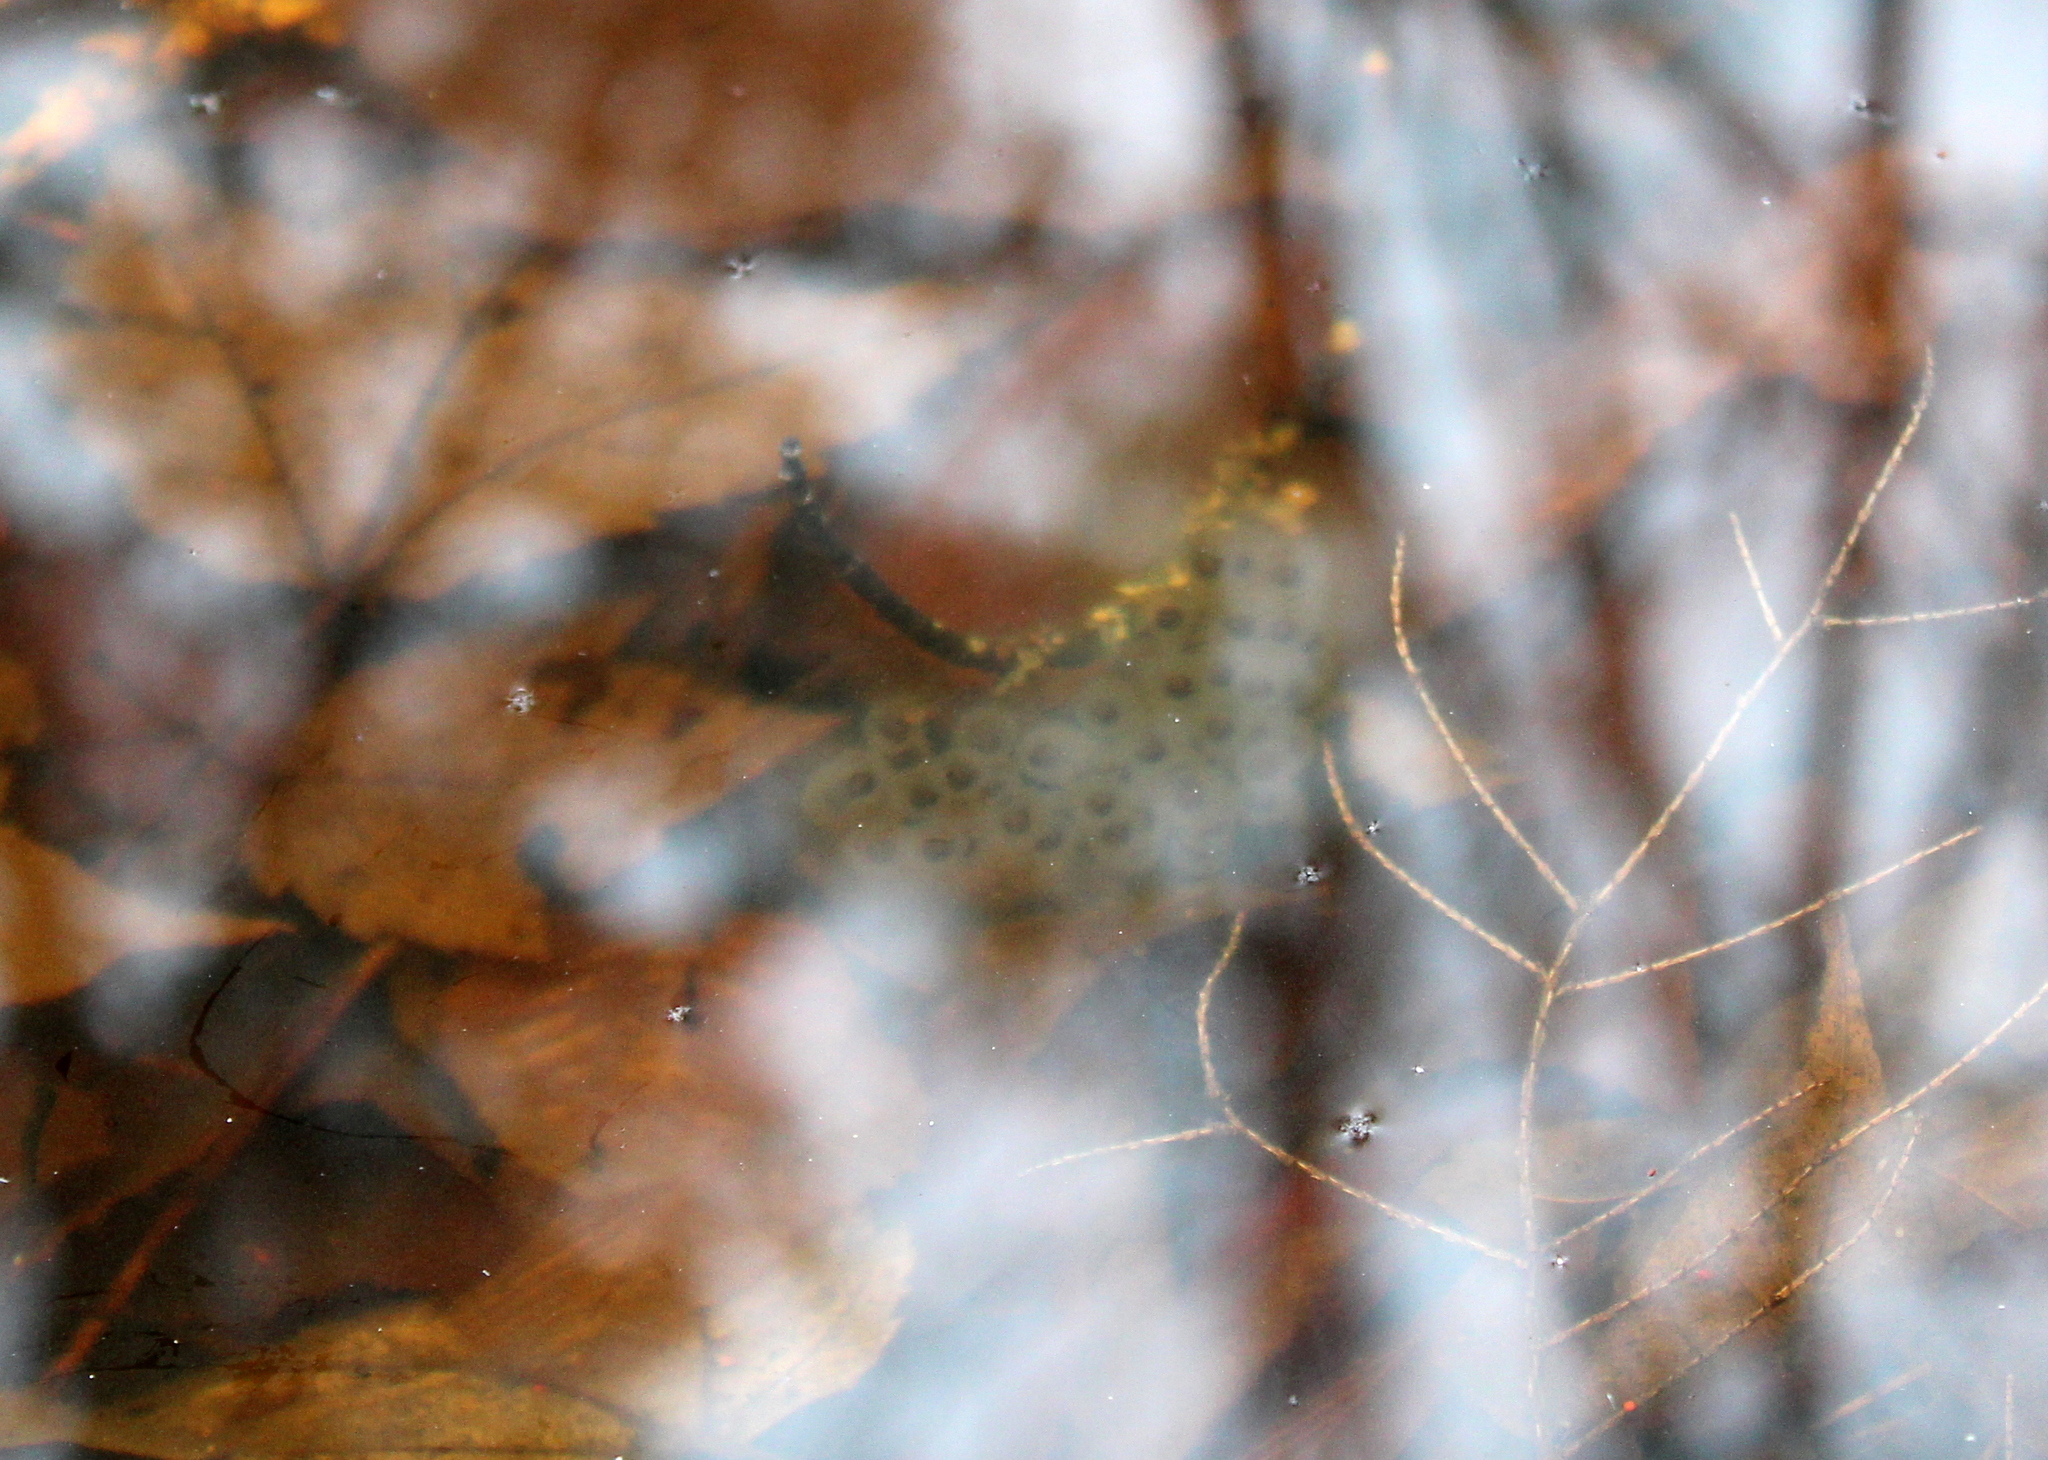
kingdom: Animalia
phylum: Chordata
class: Amphibia
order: Caudata
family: Ambystomatidae
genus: Ambystoma
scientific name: Ambystoma maculatum
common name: Spotted salamander
